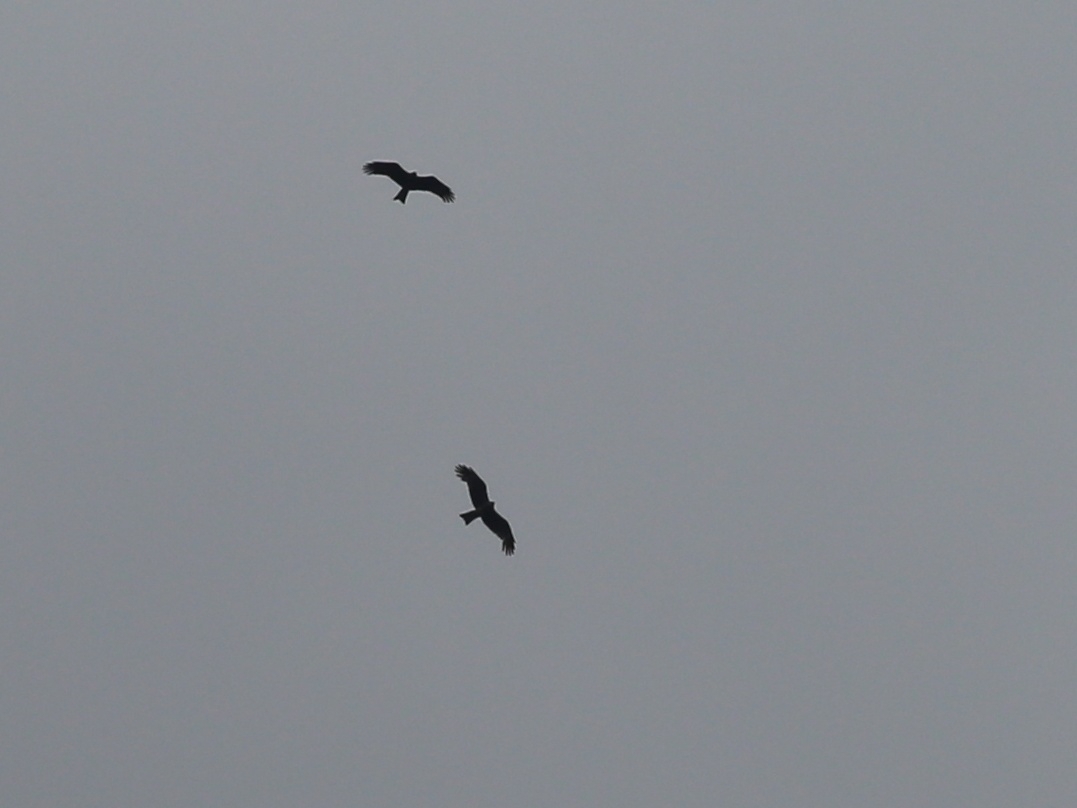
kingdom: Animalia
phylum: Chordata
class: Aves
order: Accipitriformes
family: Accipitridae
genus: Hieraaetus
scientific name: Hieraaetus pennatus
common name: Booted eagle
